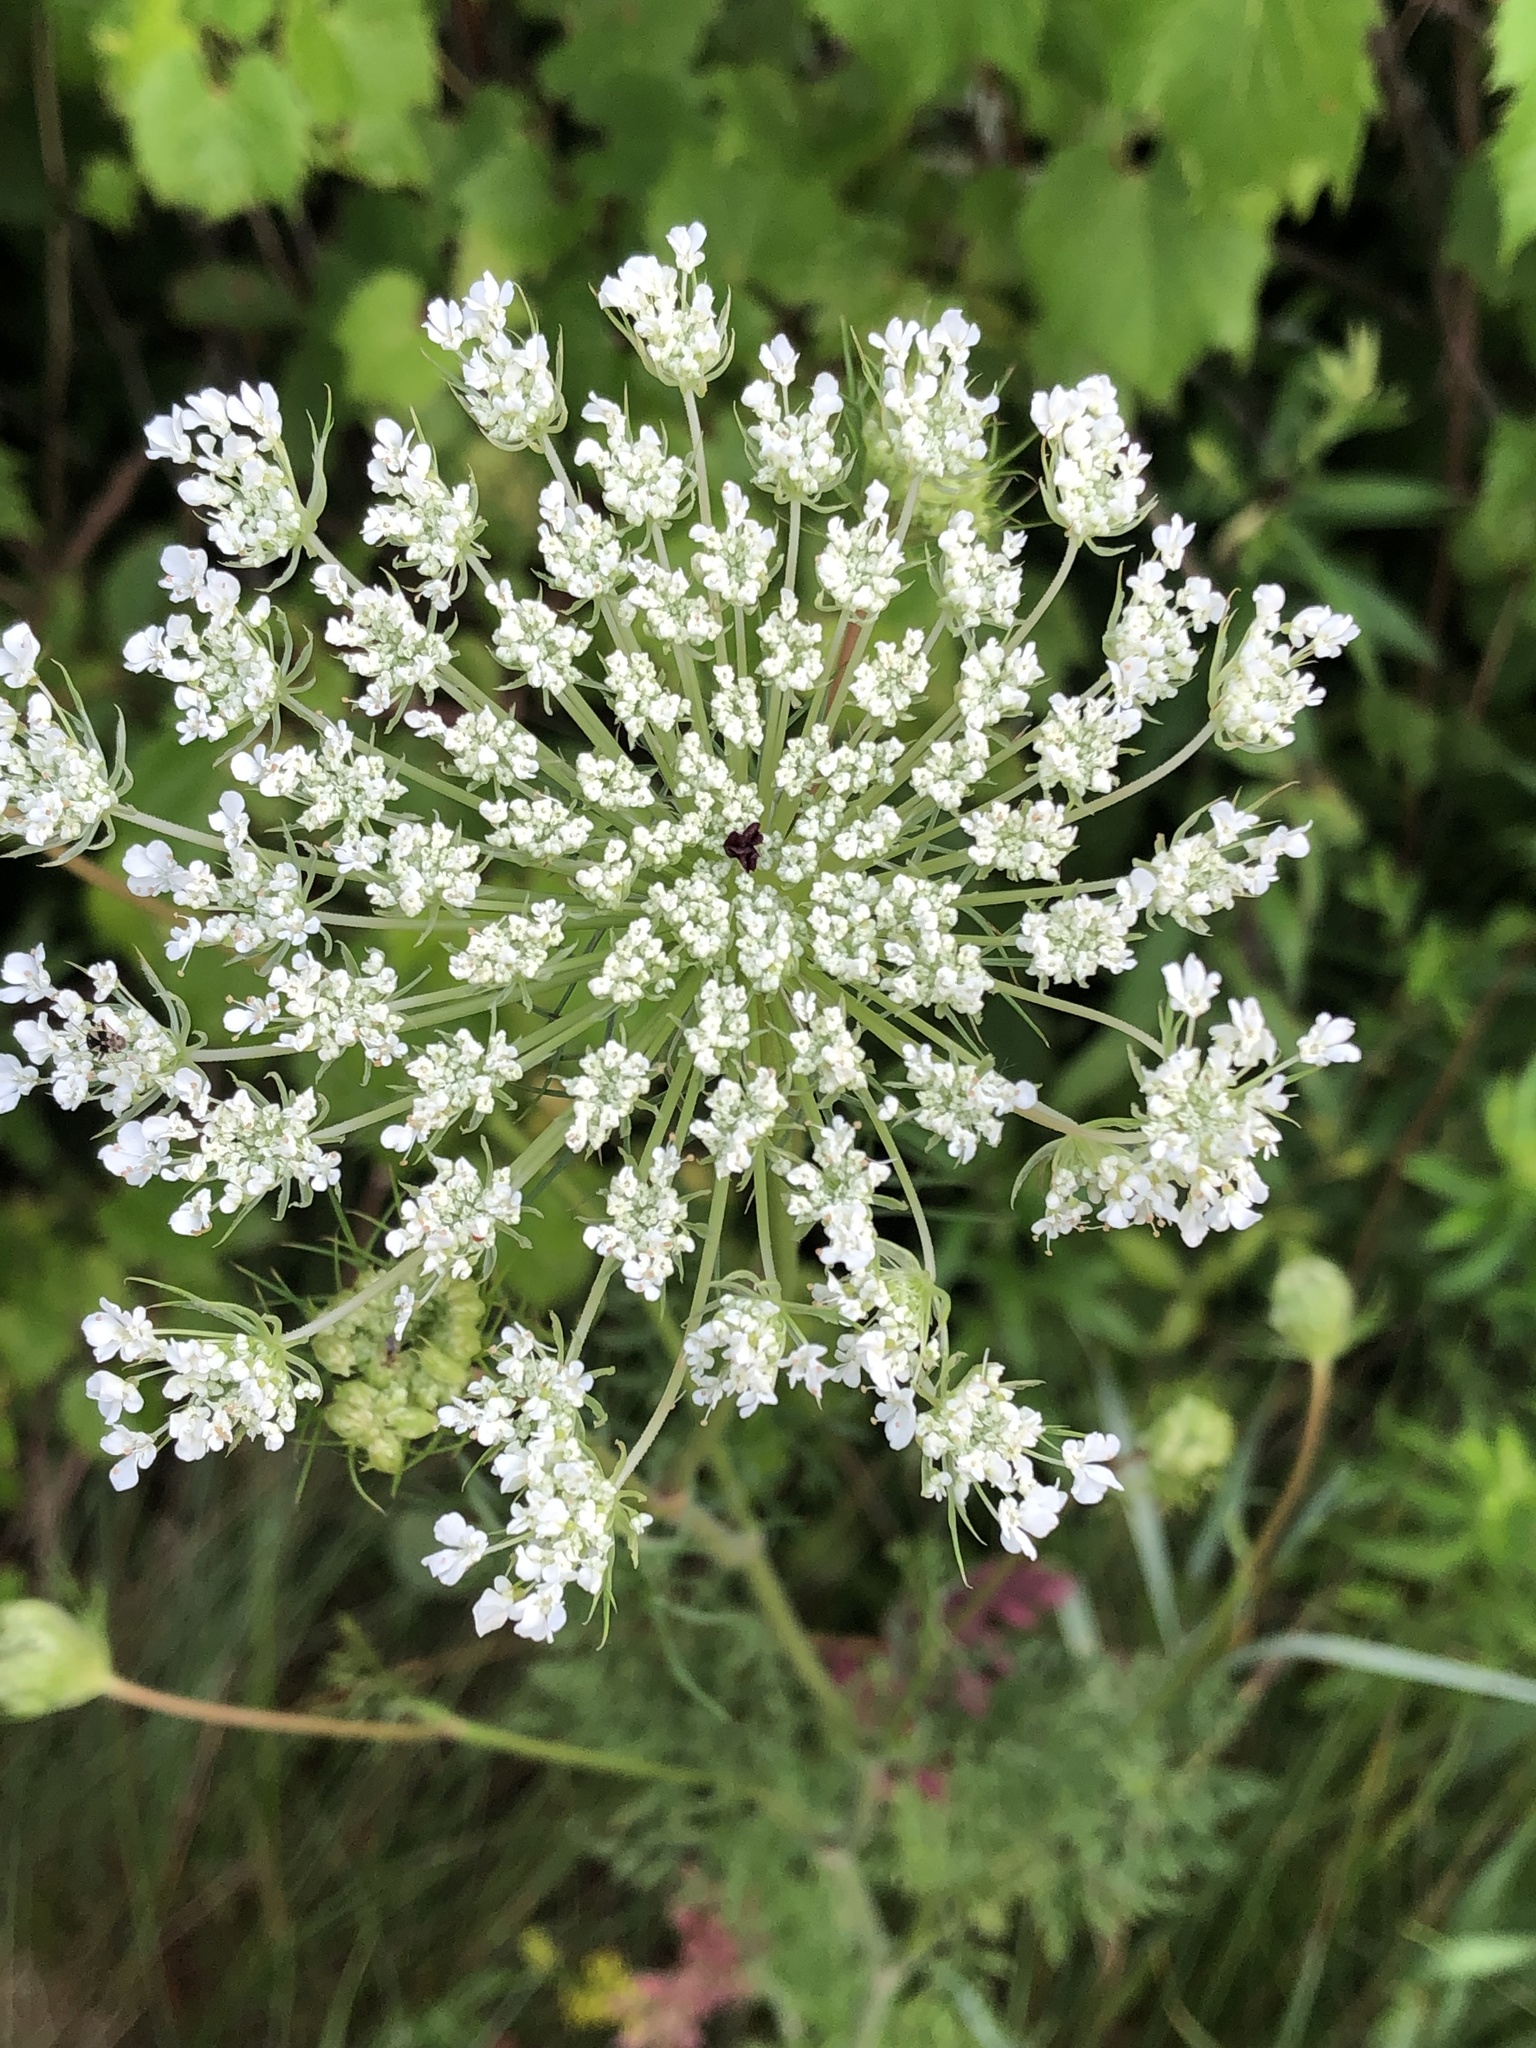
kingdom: Plantae
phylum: Tracheophyta
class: Magnoliopsida
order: Apiales
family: Apiaceae
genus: Daucus
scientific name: Daucus carota
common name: Wild carrot
